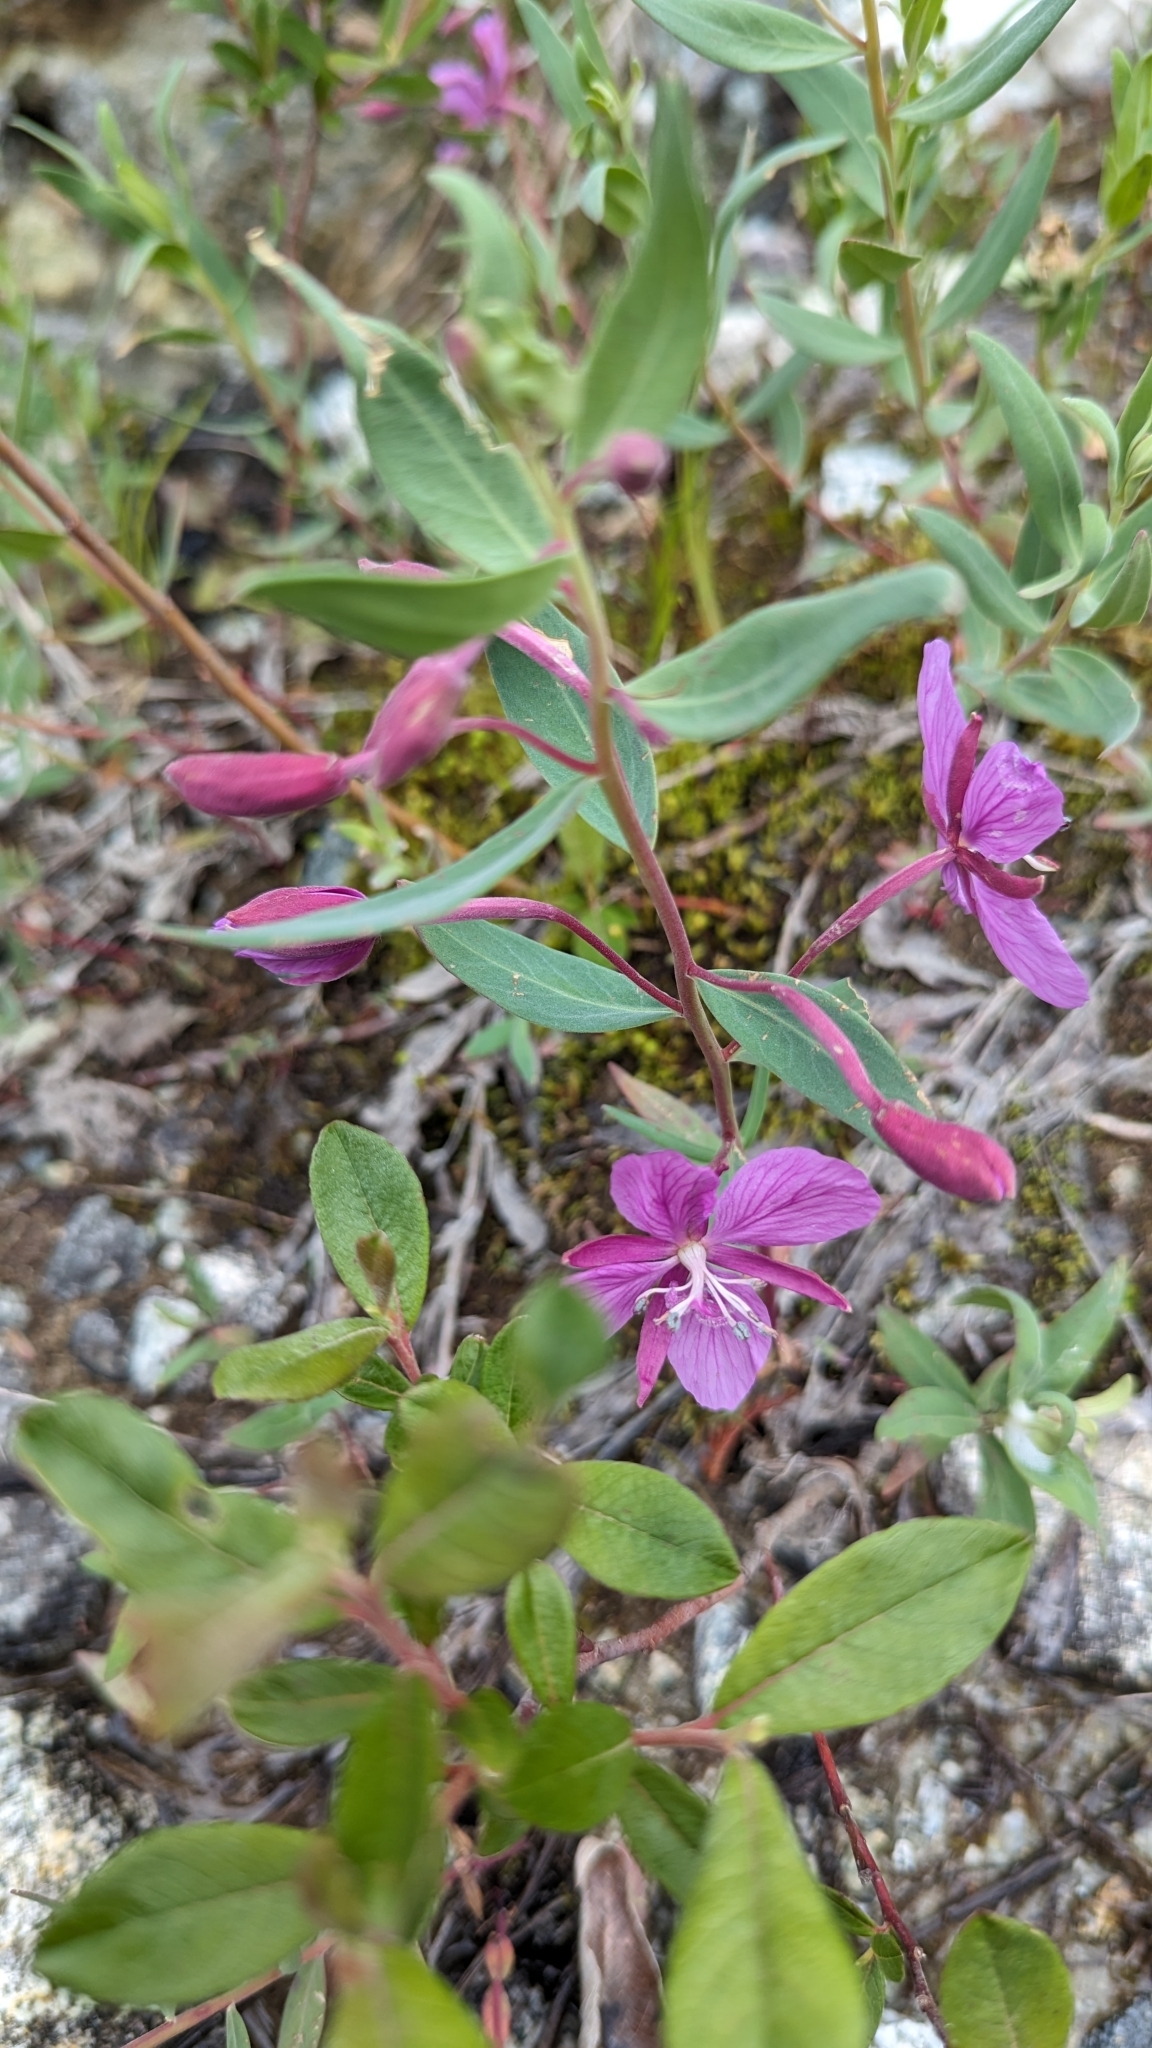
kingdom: Plantae
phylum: Tracheophyta
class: Magnoliopsida
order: Myrtales
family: Onagraceae
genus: Chamaenerion
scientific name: Chamaenerion latifolium
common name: Dwarf fireweed
